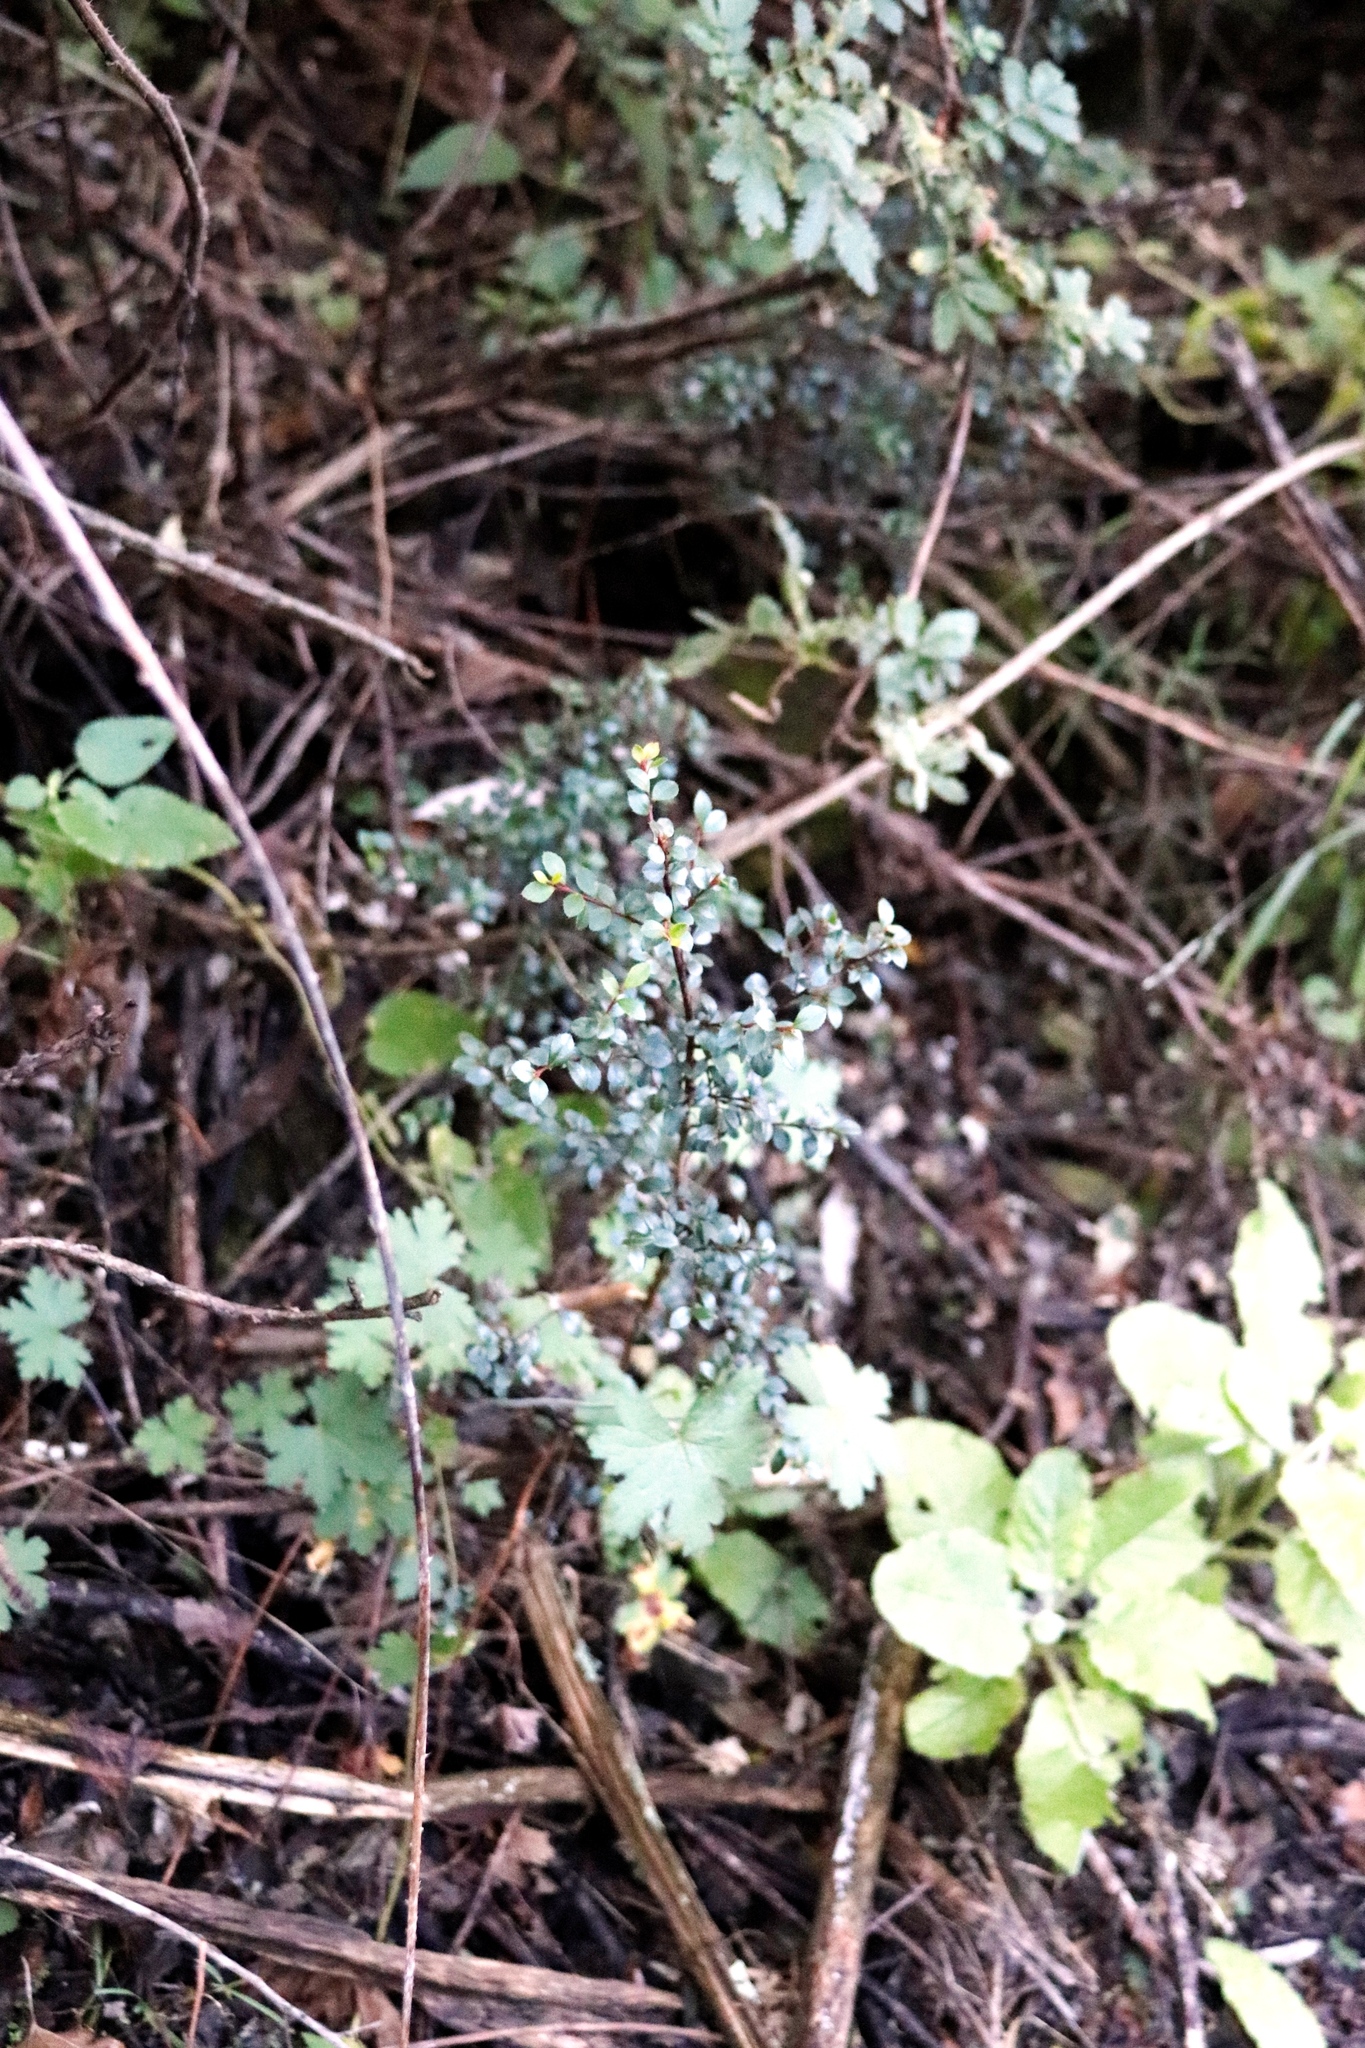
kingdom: Plantae
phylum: Tracheophyta
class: Magnoliopsida
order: Ericales
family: Primulaceae
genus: Myrsine
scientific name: Myrsine africana
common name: African-boxwood
